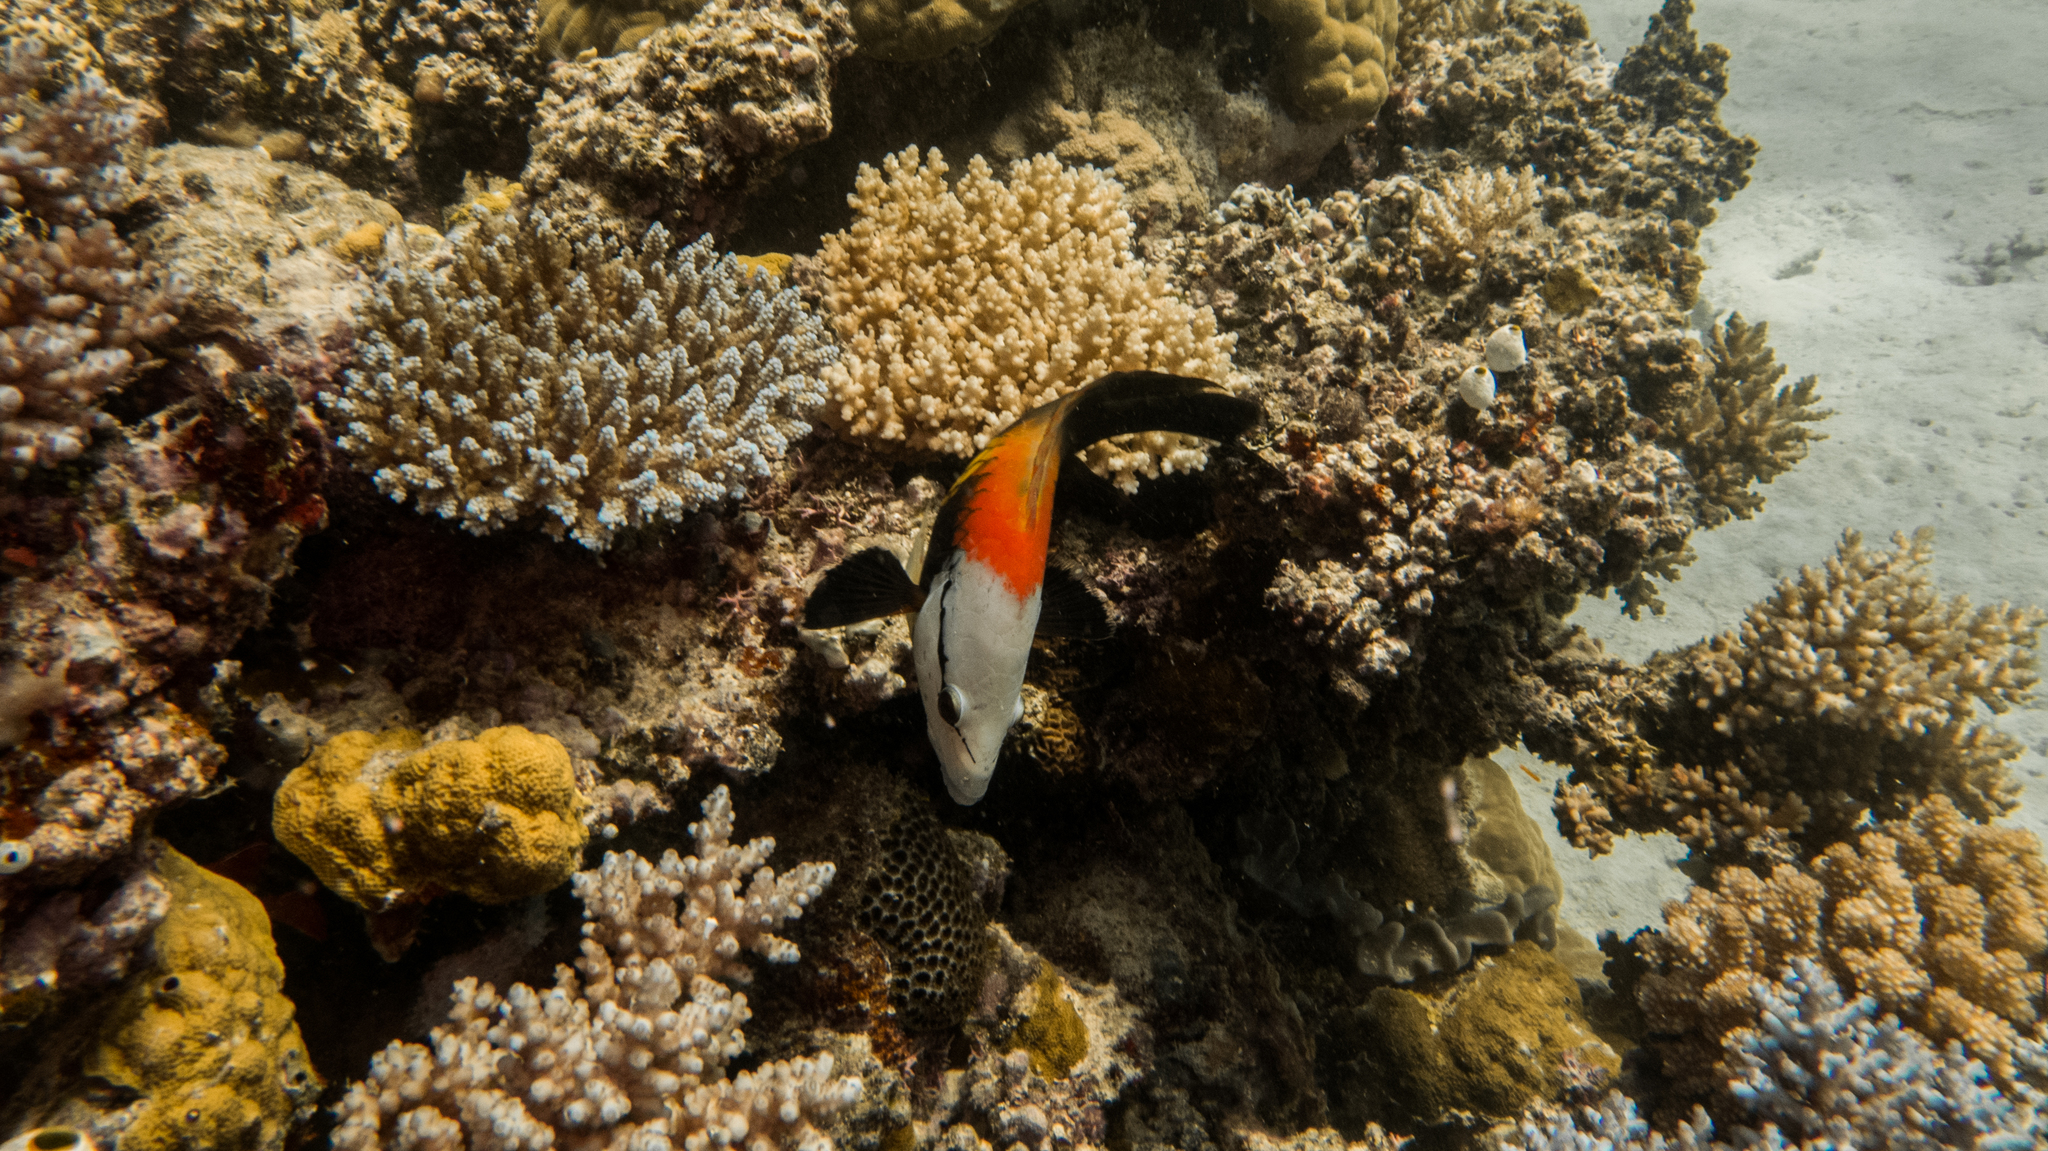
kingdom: Animalia
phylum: Chordata
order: Perciformes
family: Labridae
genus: Epibulus
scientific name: Epibulus insidiator
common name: Slingjaw wrasse
